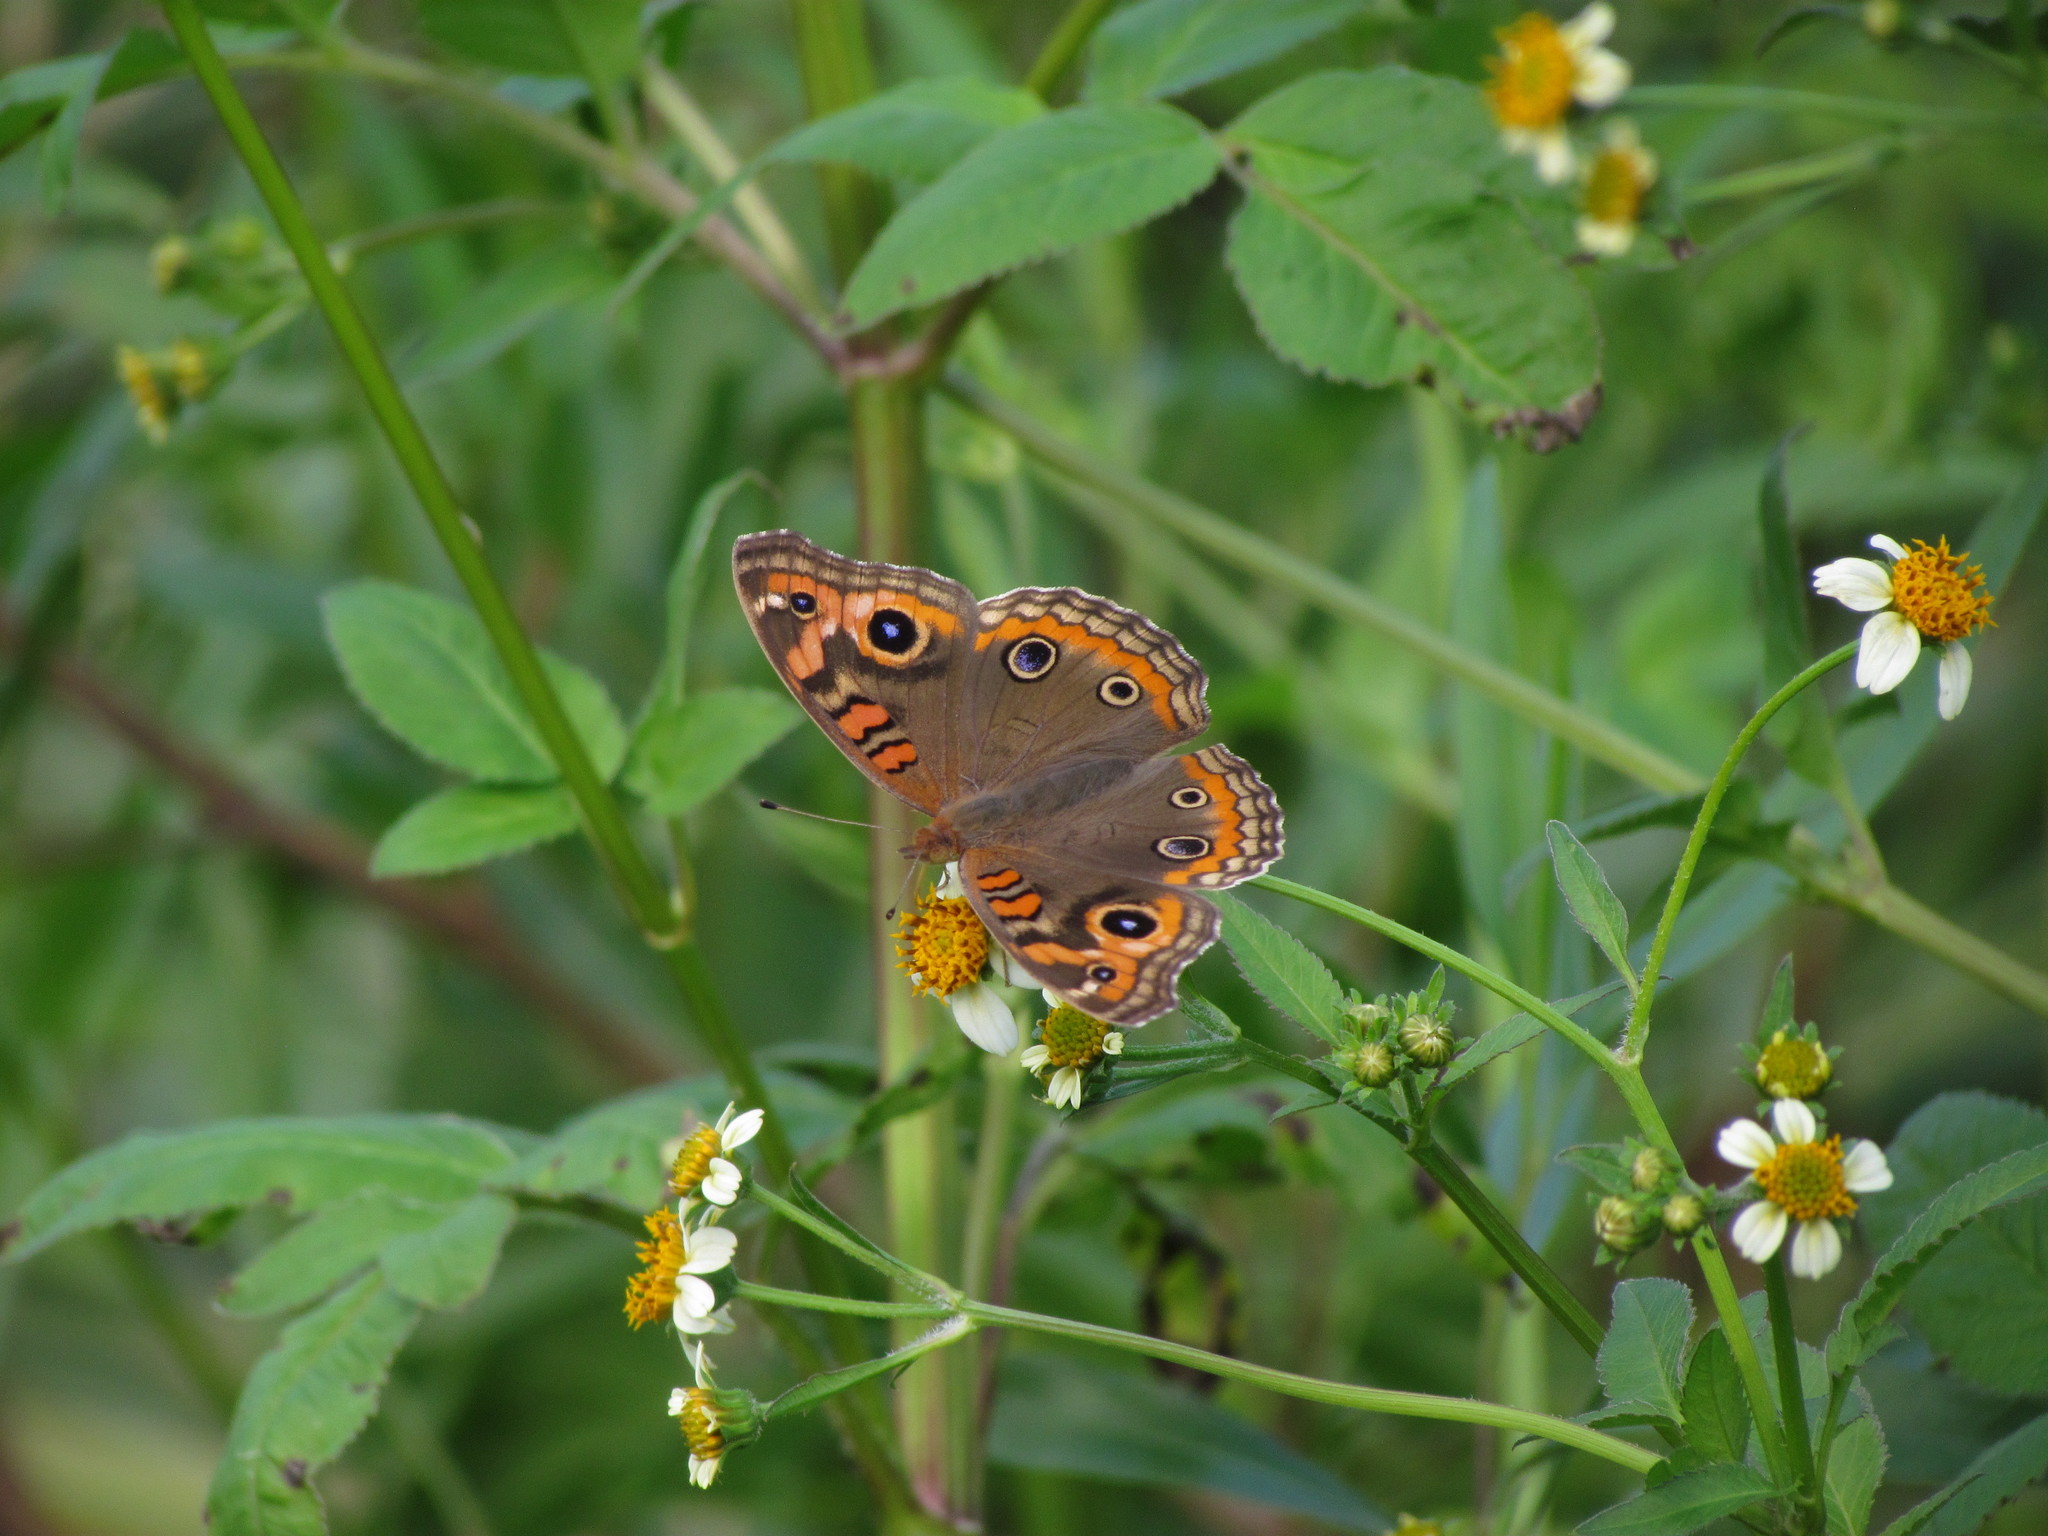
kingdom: Animalia
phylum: Arthropoda
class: Insecta
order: Lepidoptera
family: Nymphalidae
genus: Junonia
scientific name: Junonia lavinia
